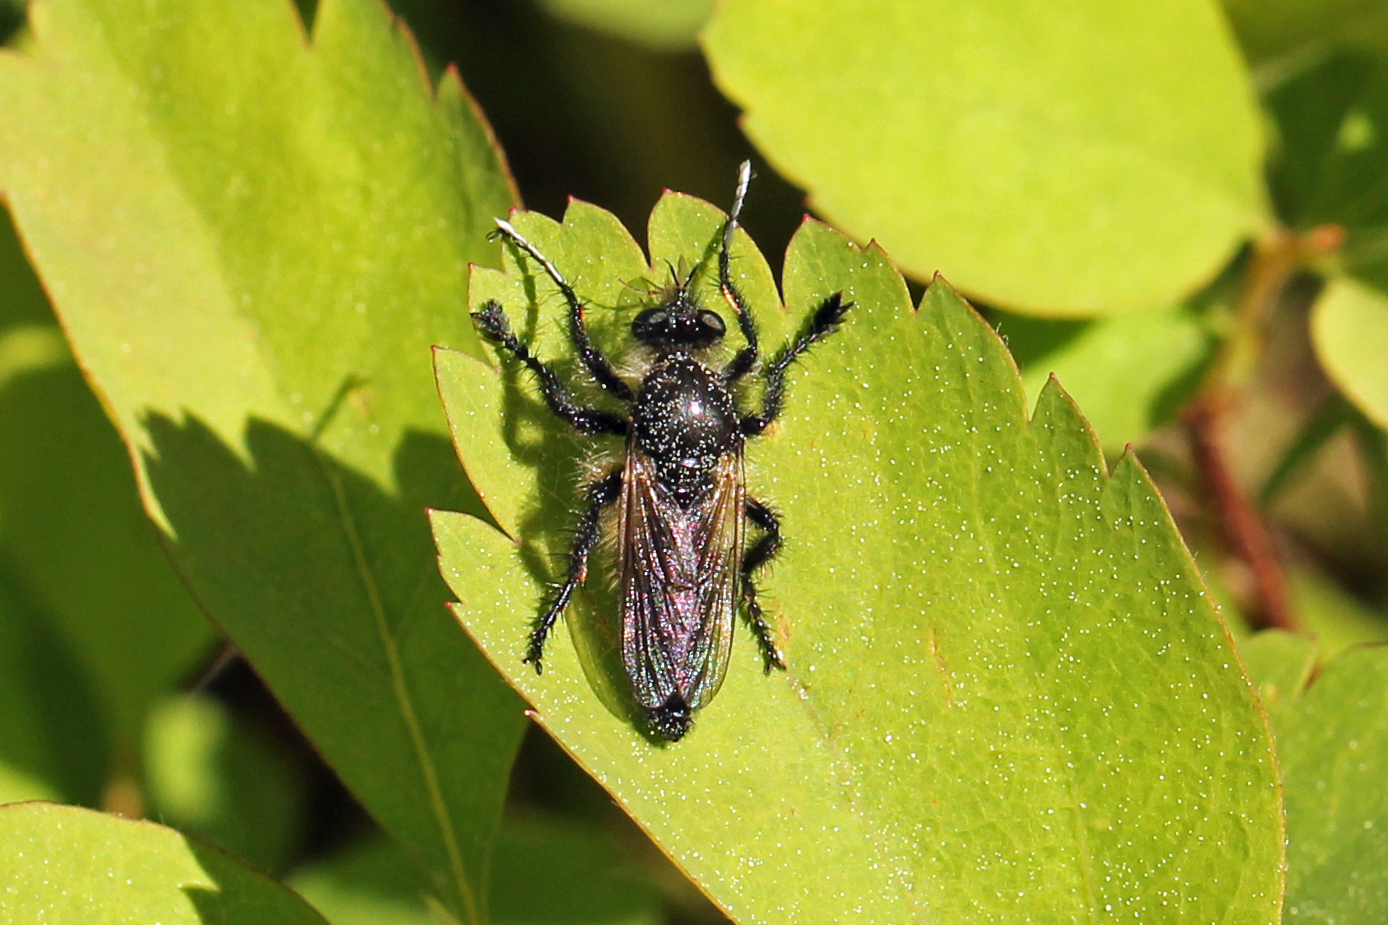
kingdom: Animalia
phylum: Arthropoda
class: Insecta
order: Diptera
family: Asilidae
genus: Cyrtopogon
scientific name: Cyrtopogon willistoni
